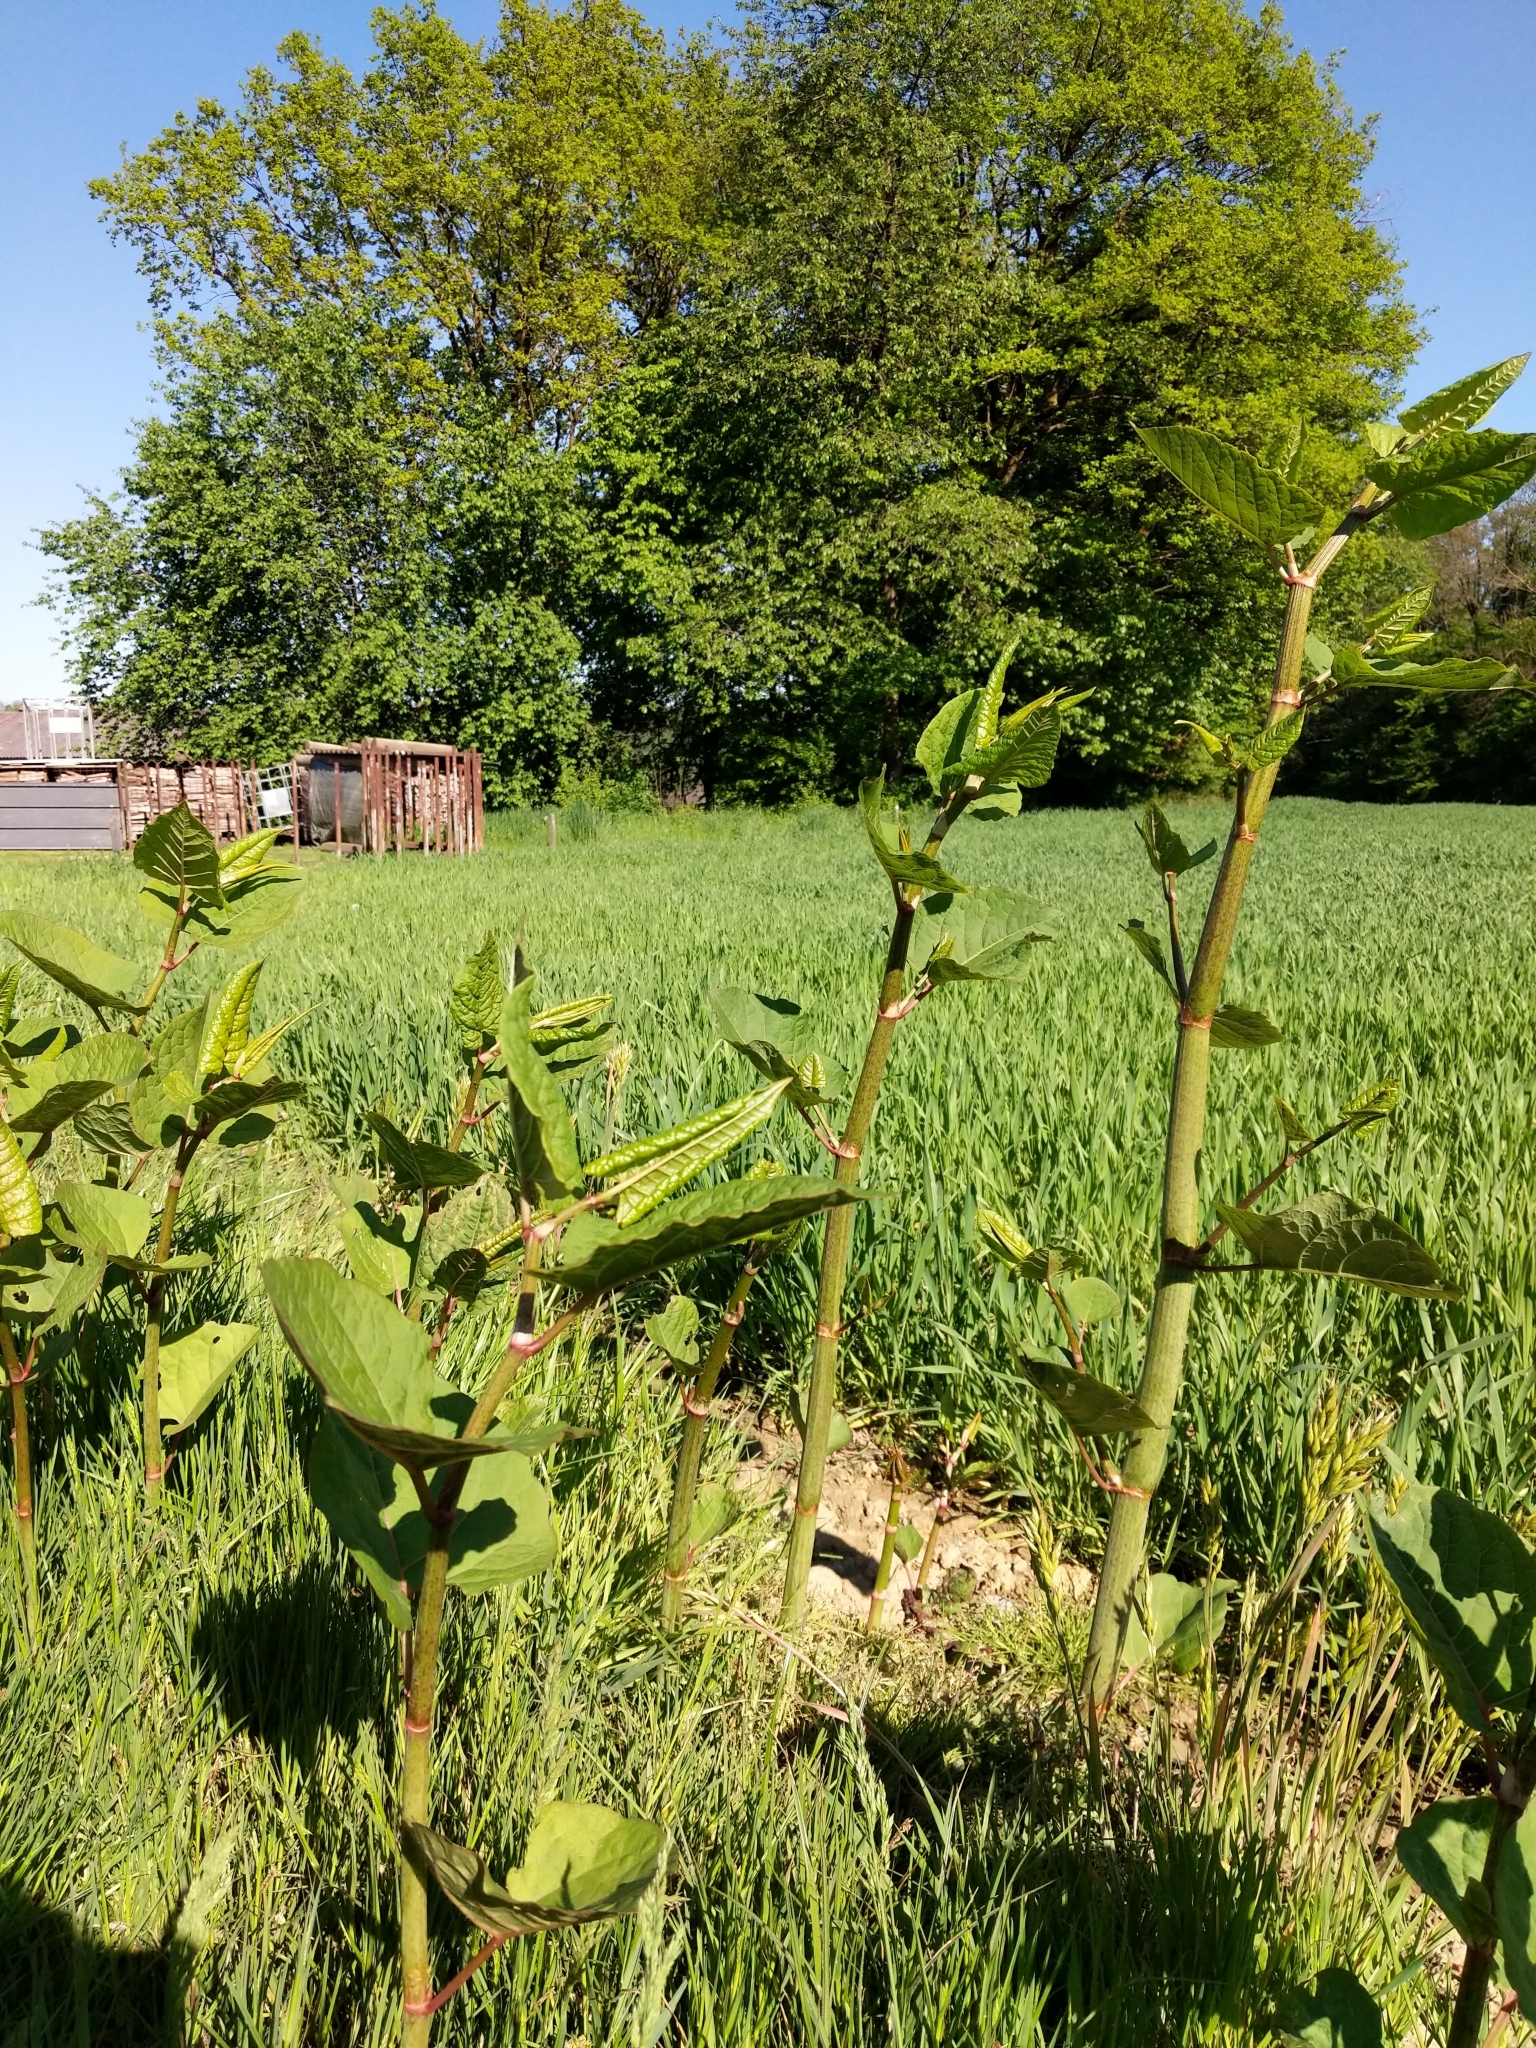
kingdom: Plantae
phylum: Tracheophyta
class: Magnoliopsida
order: Caryophyllales
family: Polygonaceae
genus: Reynoutria
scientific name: Reynoutria bohemica
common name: Bohemian knotweed
